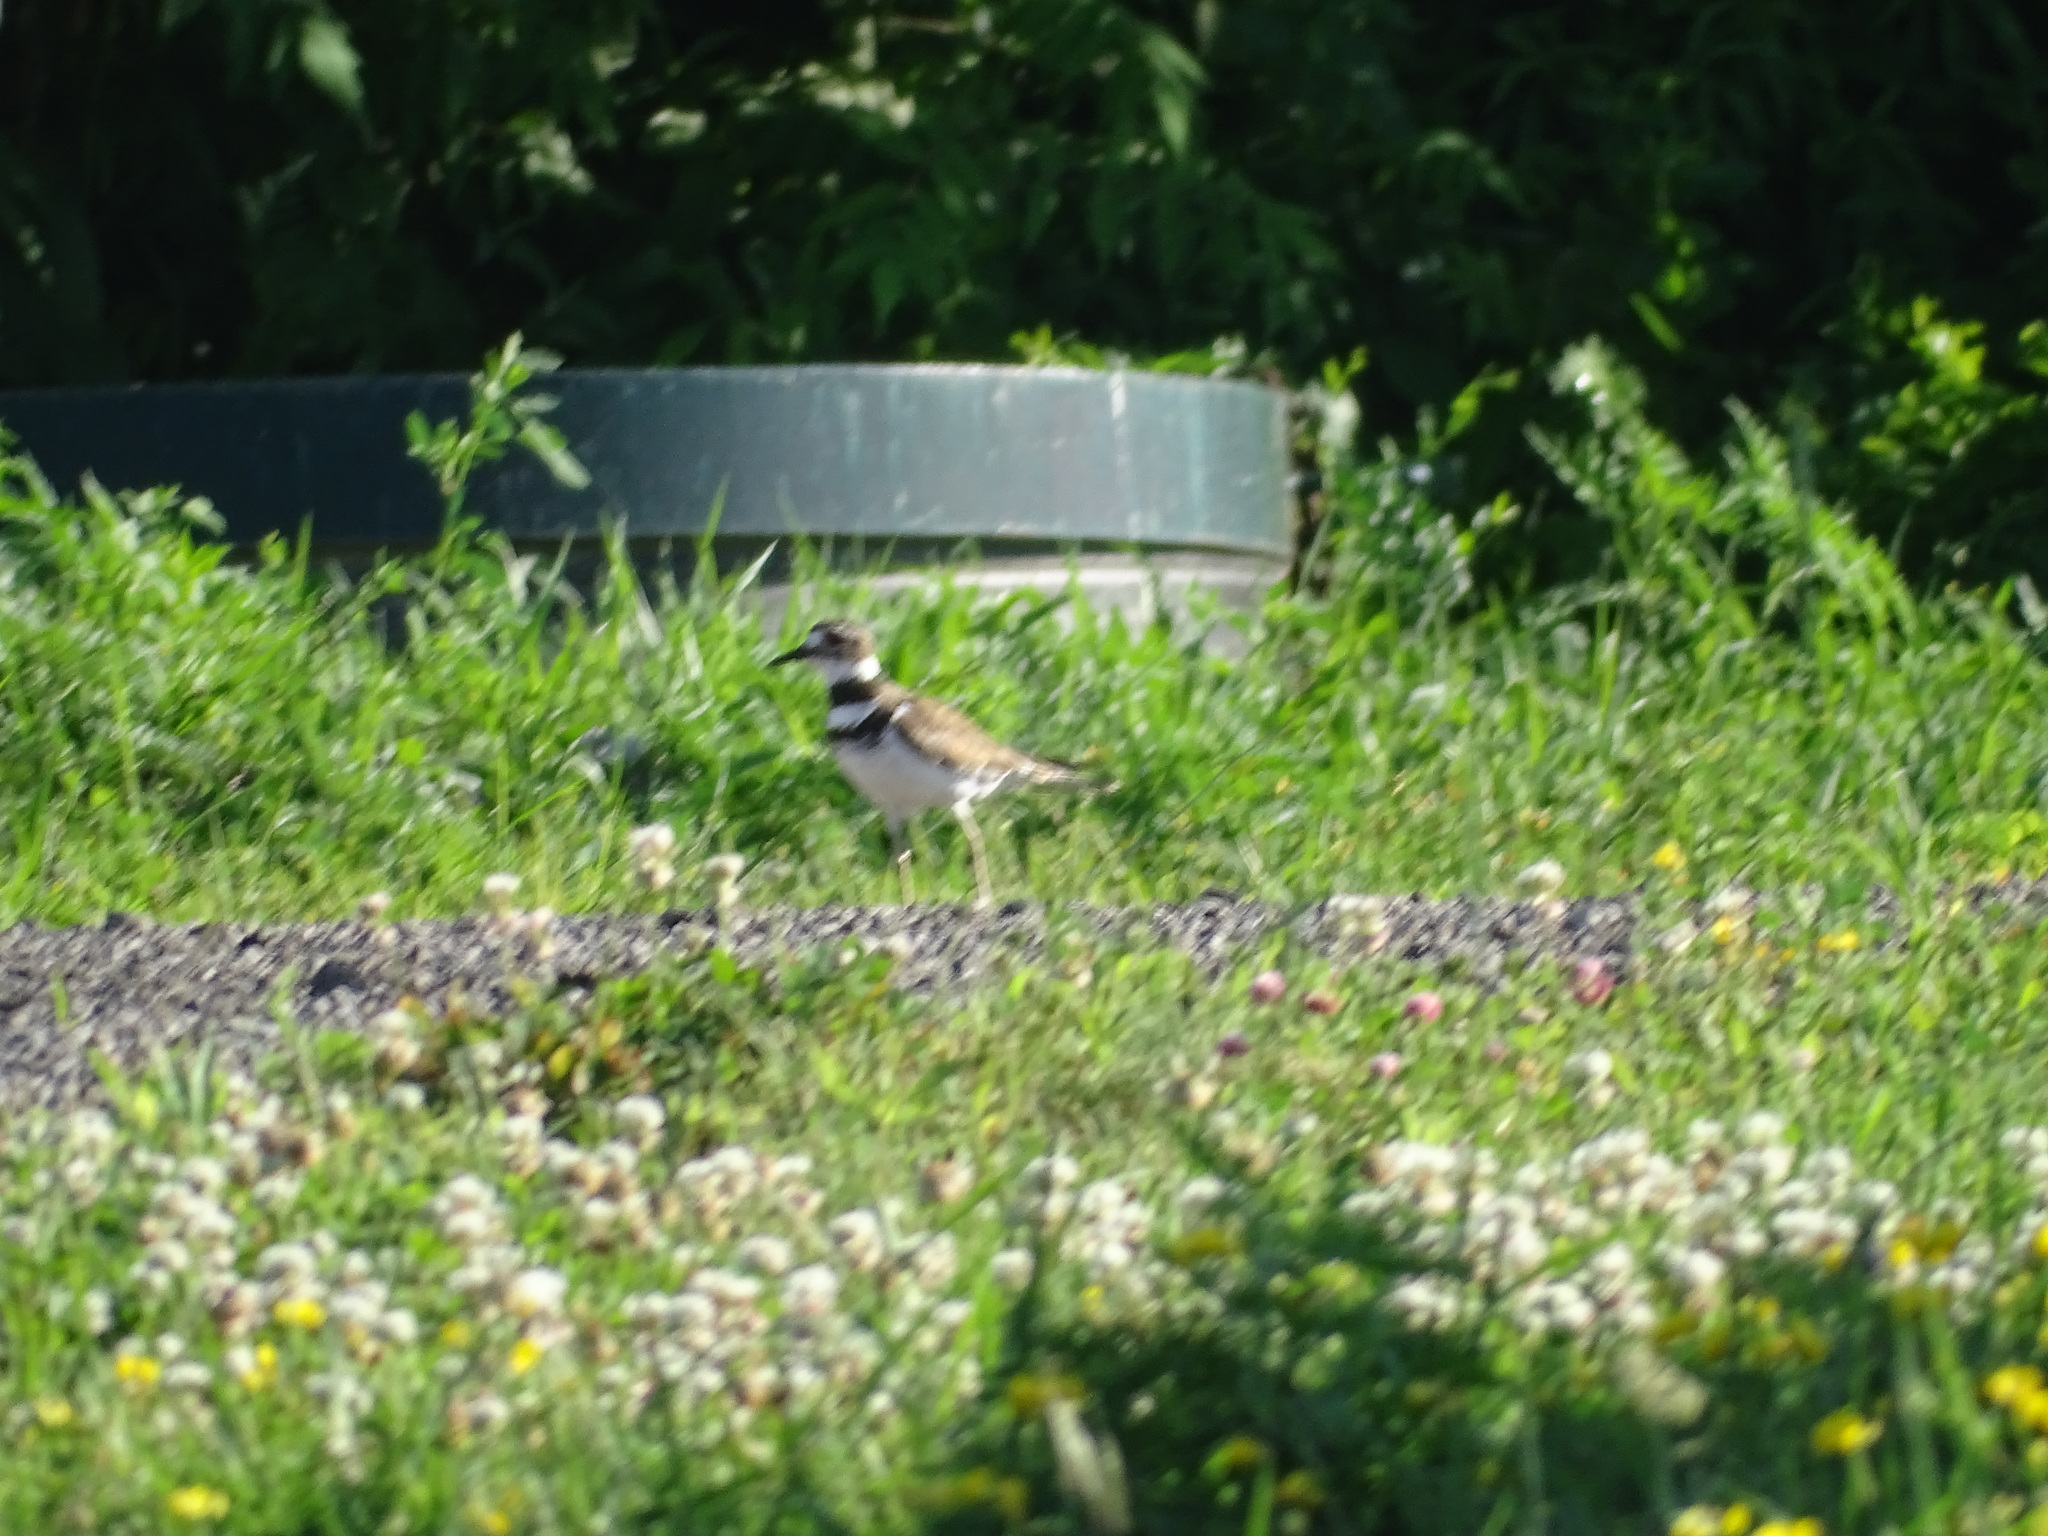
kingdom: Animalia
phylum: Chordata
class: Aves
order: Charadriiformes
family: Charadriidae
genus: Charadrius
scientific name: Charadrius vociferus
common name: Killdeer
